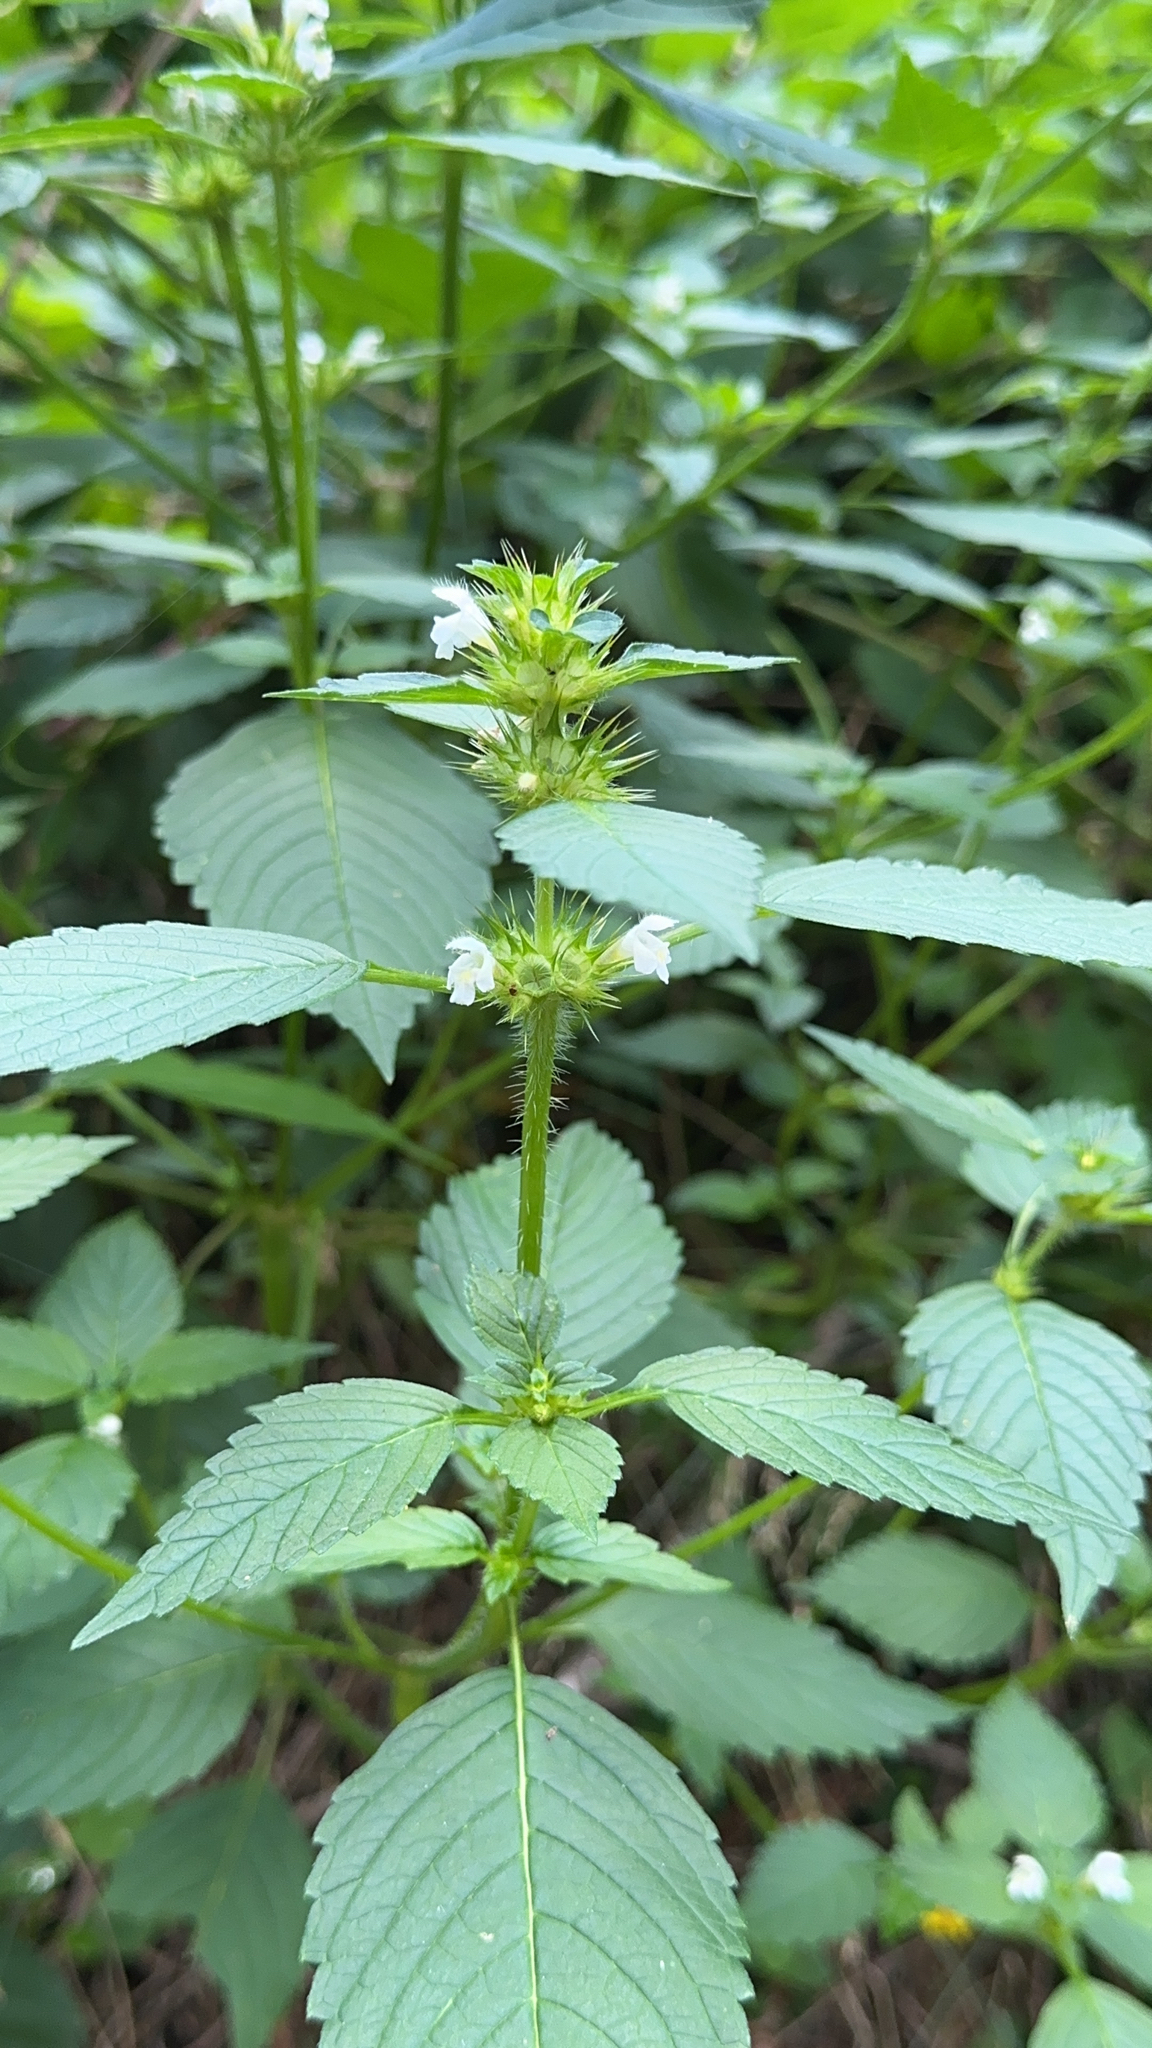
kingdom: Plantae
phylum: Tracheophyta
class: Magnoliopsida
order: Lamiales
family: Lamiaceae
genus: Galeopsis
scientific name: Galeopsis tetrahit
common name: Common hemp-nettle
